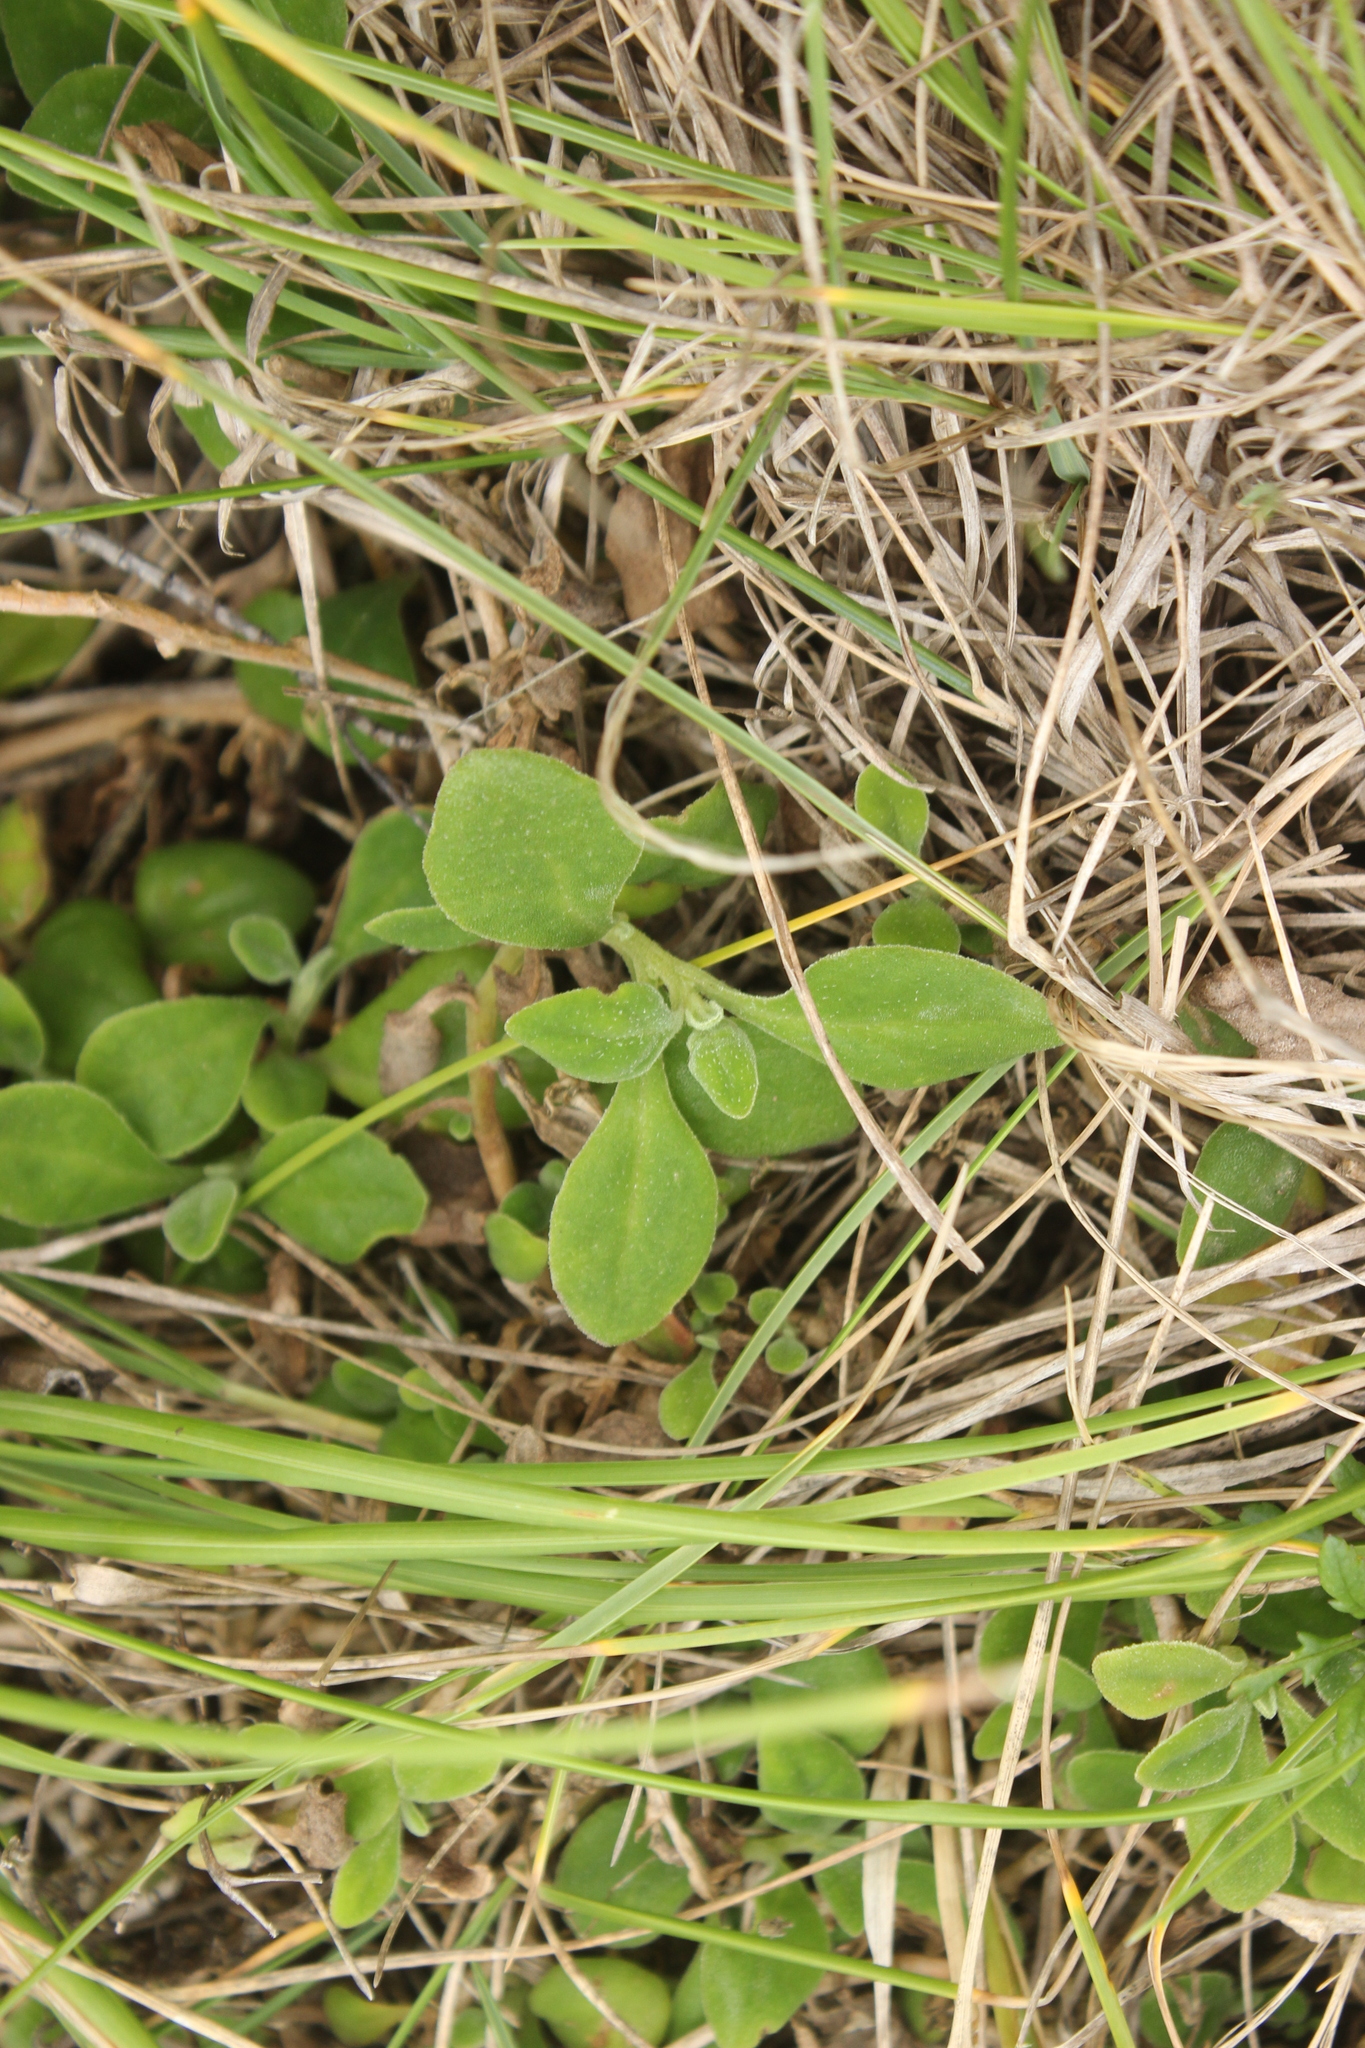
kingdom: Plantae
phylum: Tracheophyta
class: Magnoliopsida
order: Caryophyllales
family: Aizoaceae
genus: Tetragonia
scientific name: Tetragonia implexicoma
